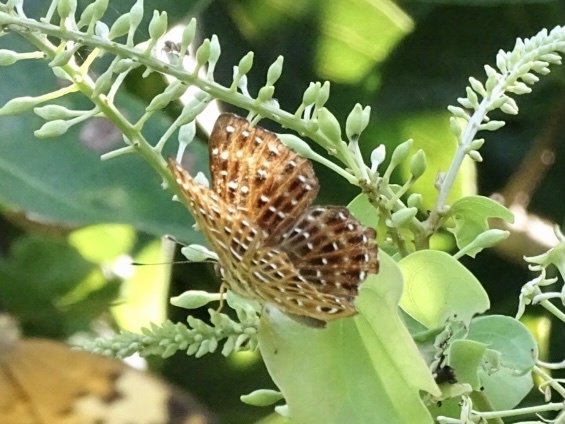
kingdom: Animalia
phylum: Arthropoda
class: Insecta
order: Lepidoptera
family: Riodinidae
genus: Zemeros
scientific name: Zemeros flegyas
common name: Punchinello
